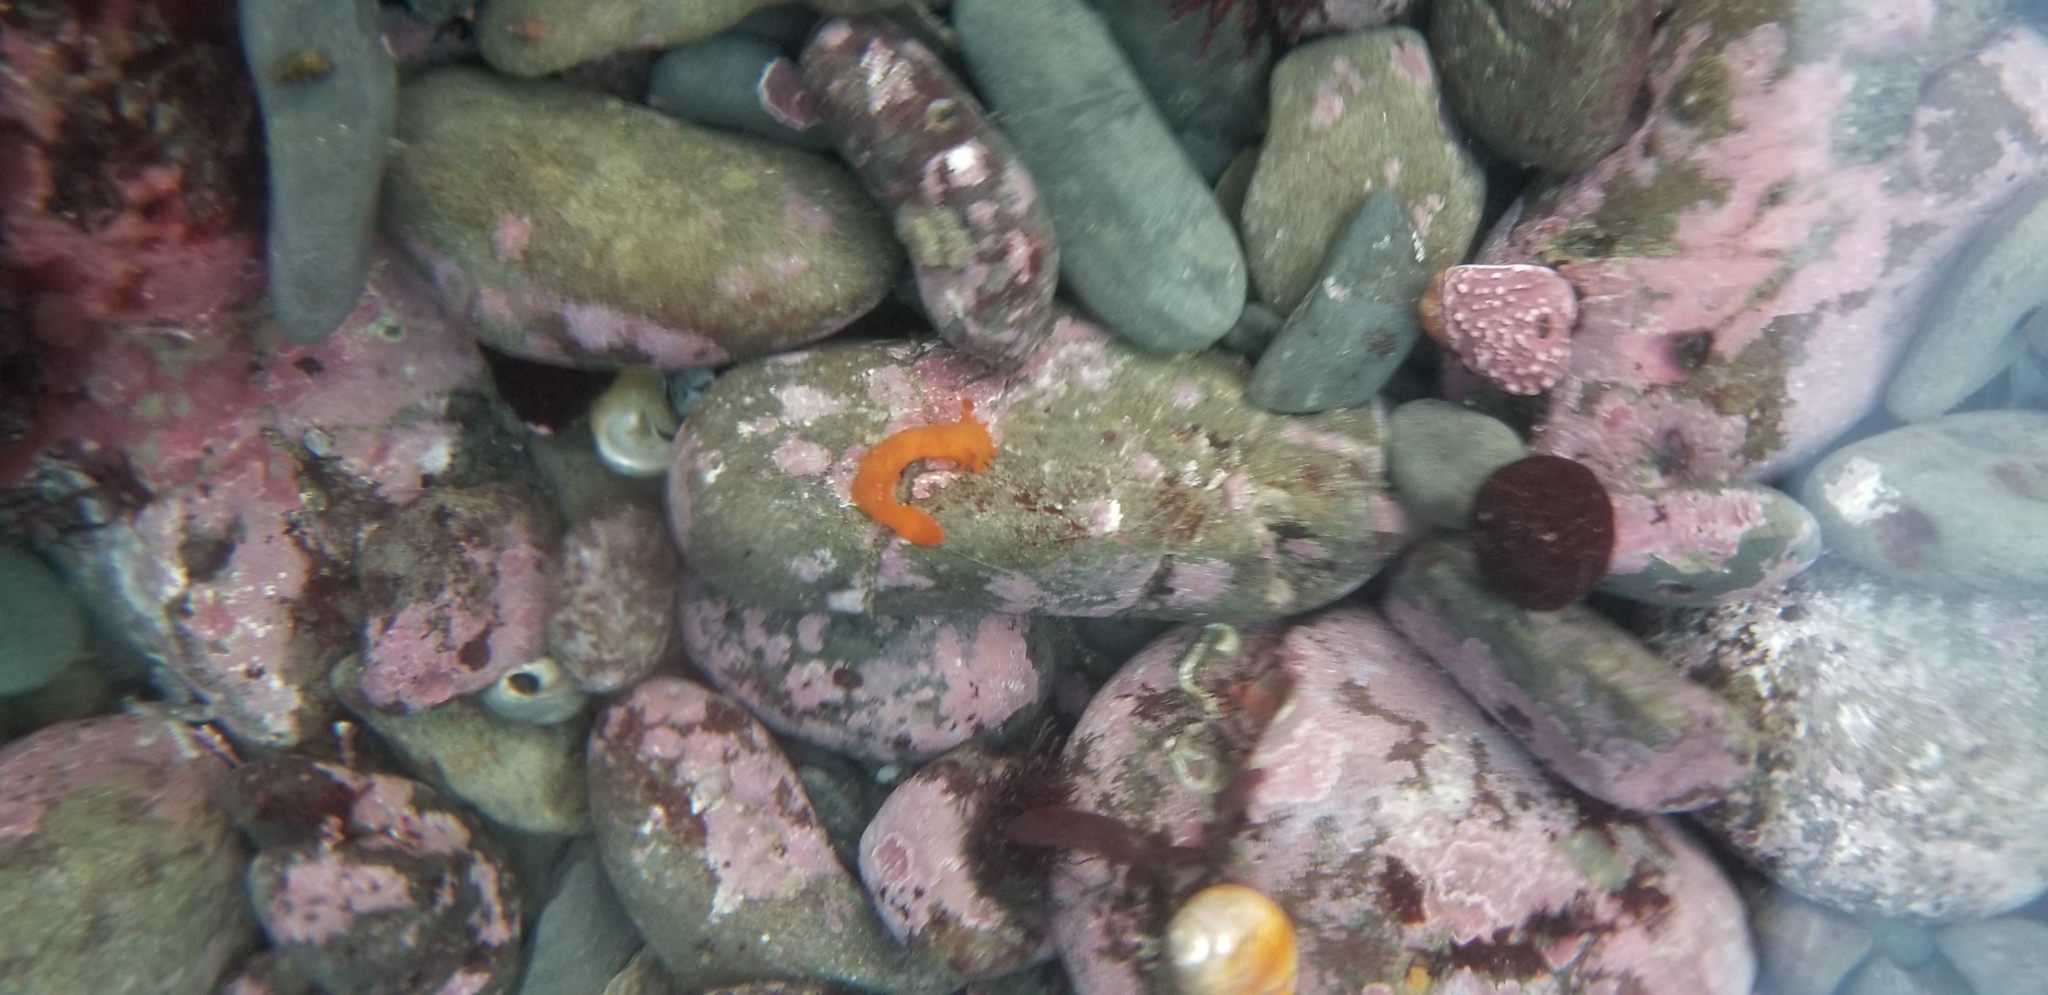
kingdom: Animalia
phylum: Mollusca
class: Gastropoda
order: Nudibranchia
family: Polyceridae
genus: Triopha
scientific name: Triopha maculata
